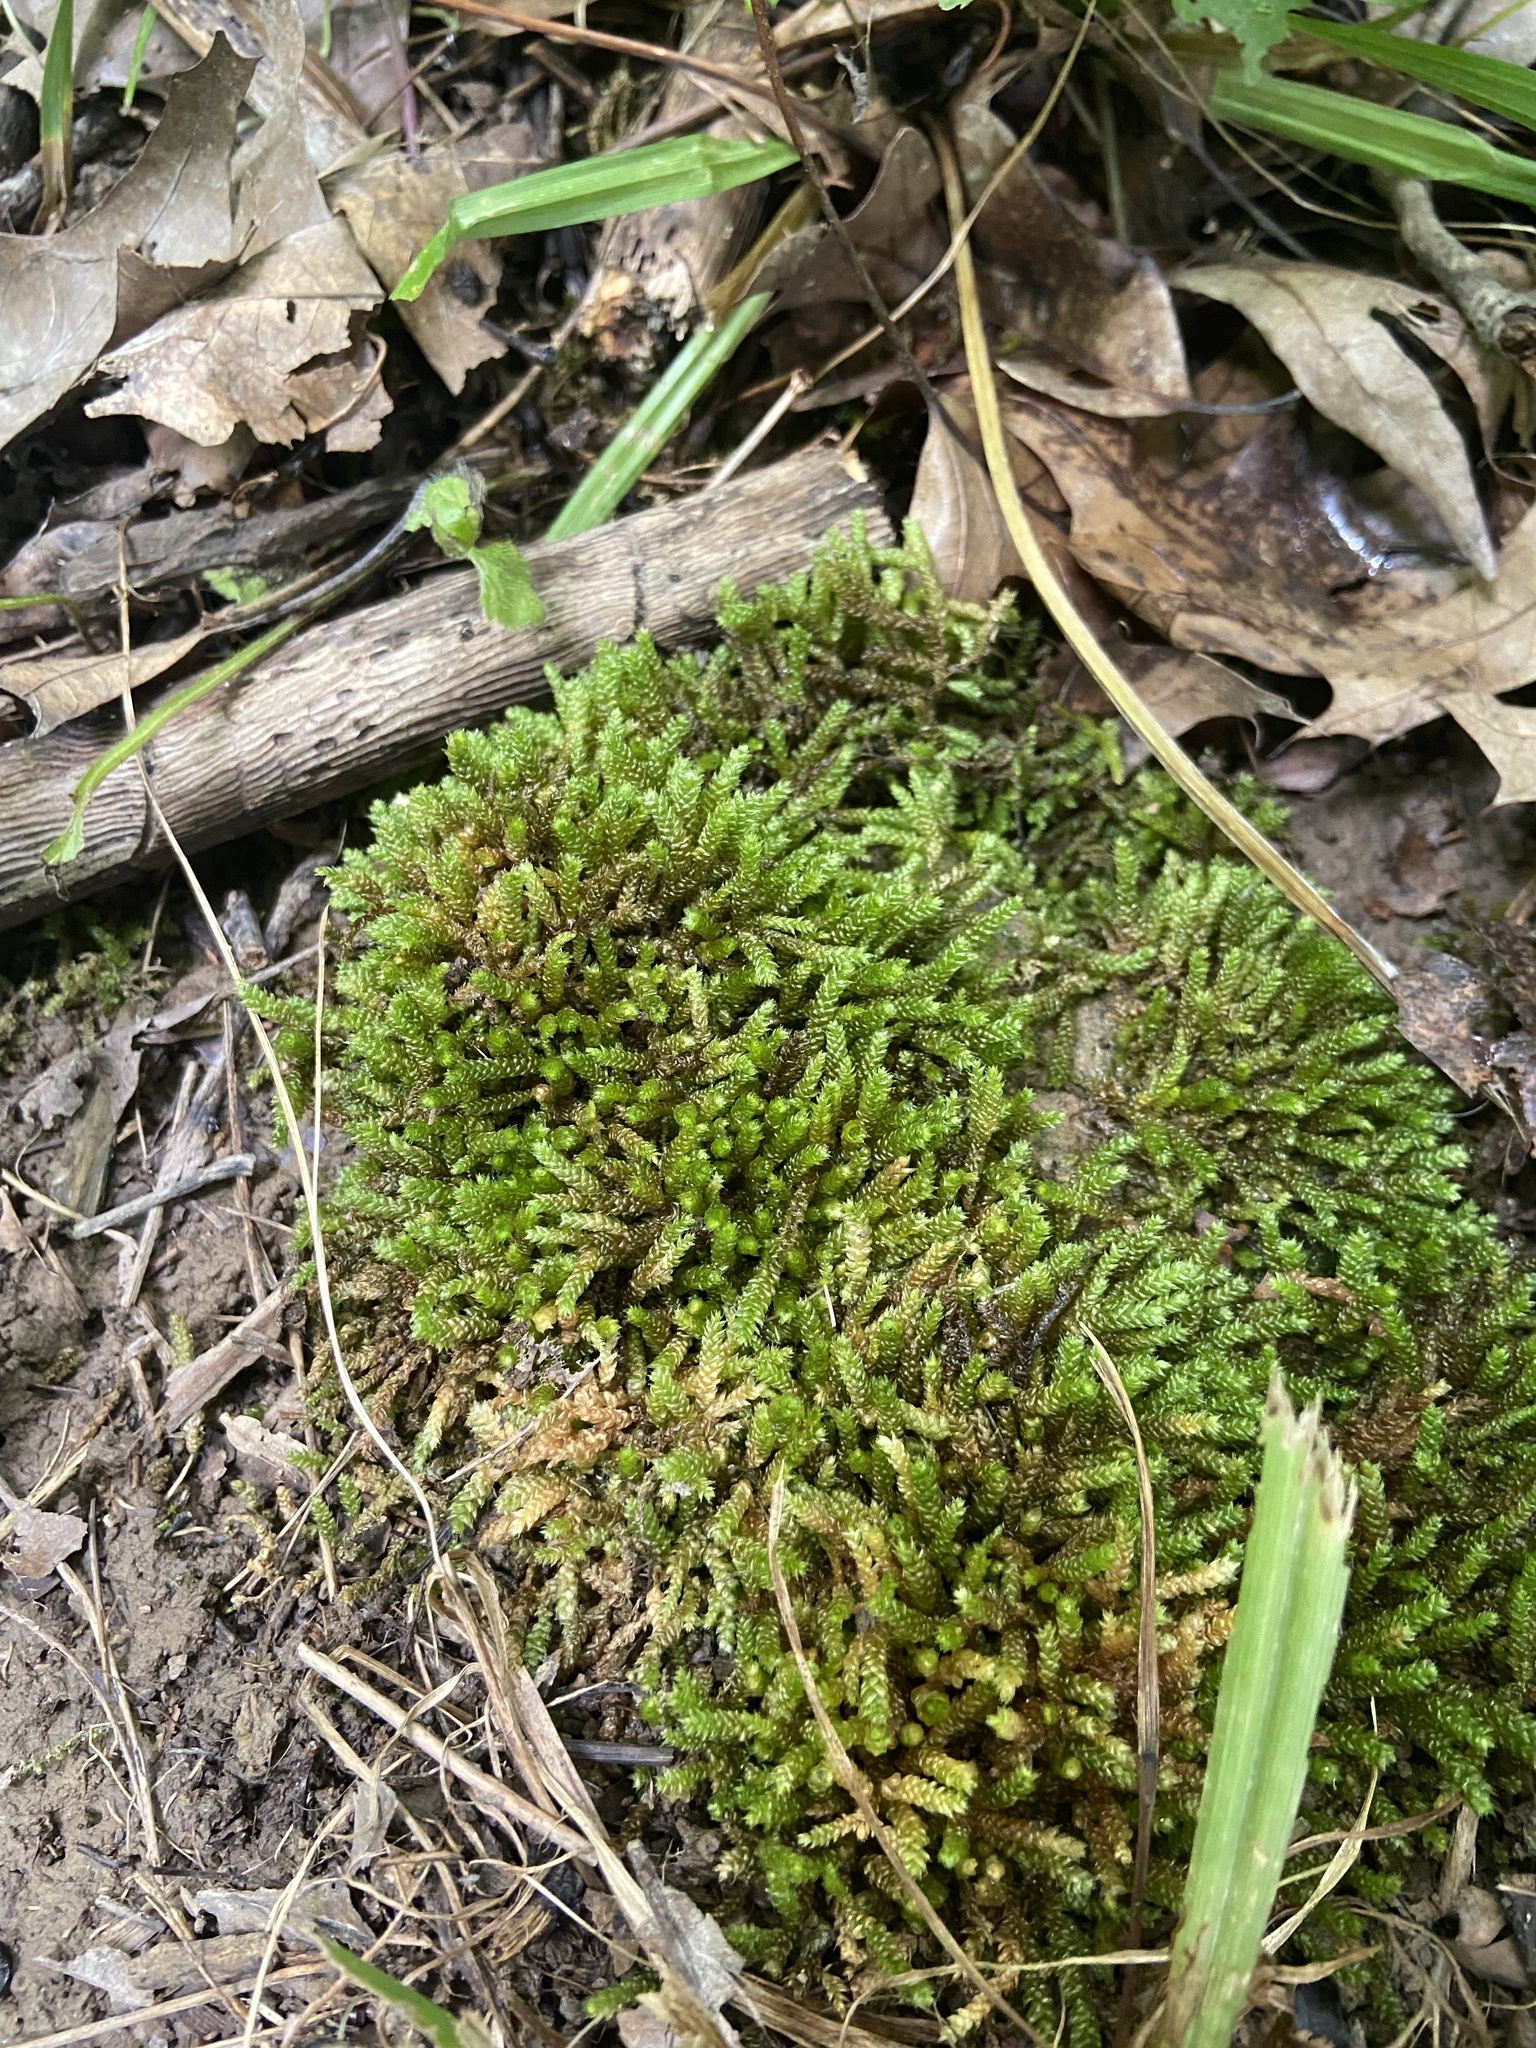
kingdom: Plantae
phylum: Bryophyta
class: Bryopsida
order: Hypnales
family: Brachytheciaceae
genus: Bryoandersonia
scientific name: Bryoandersonia illecebra
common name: Spoon-leaved moss
